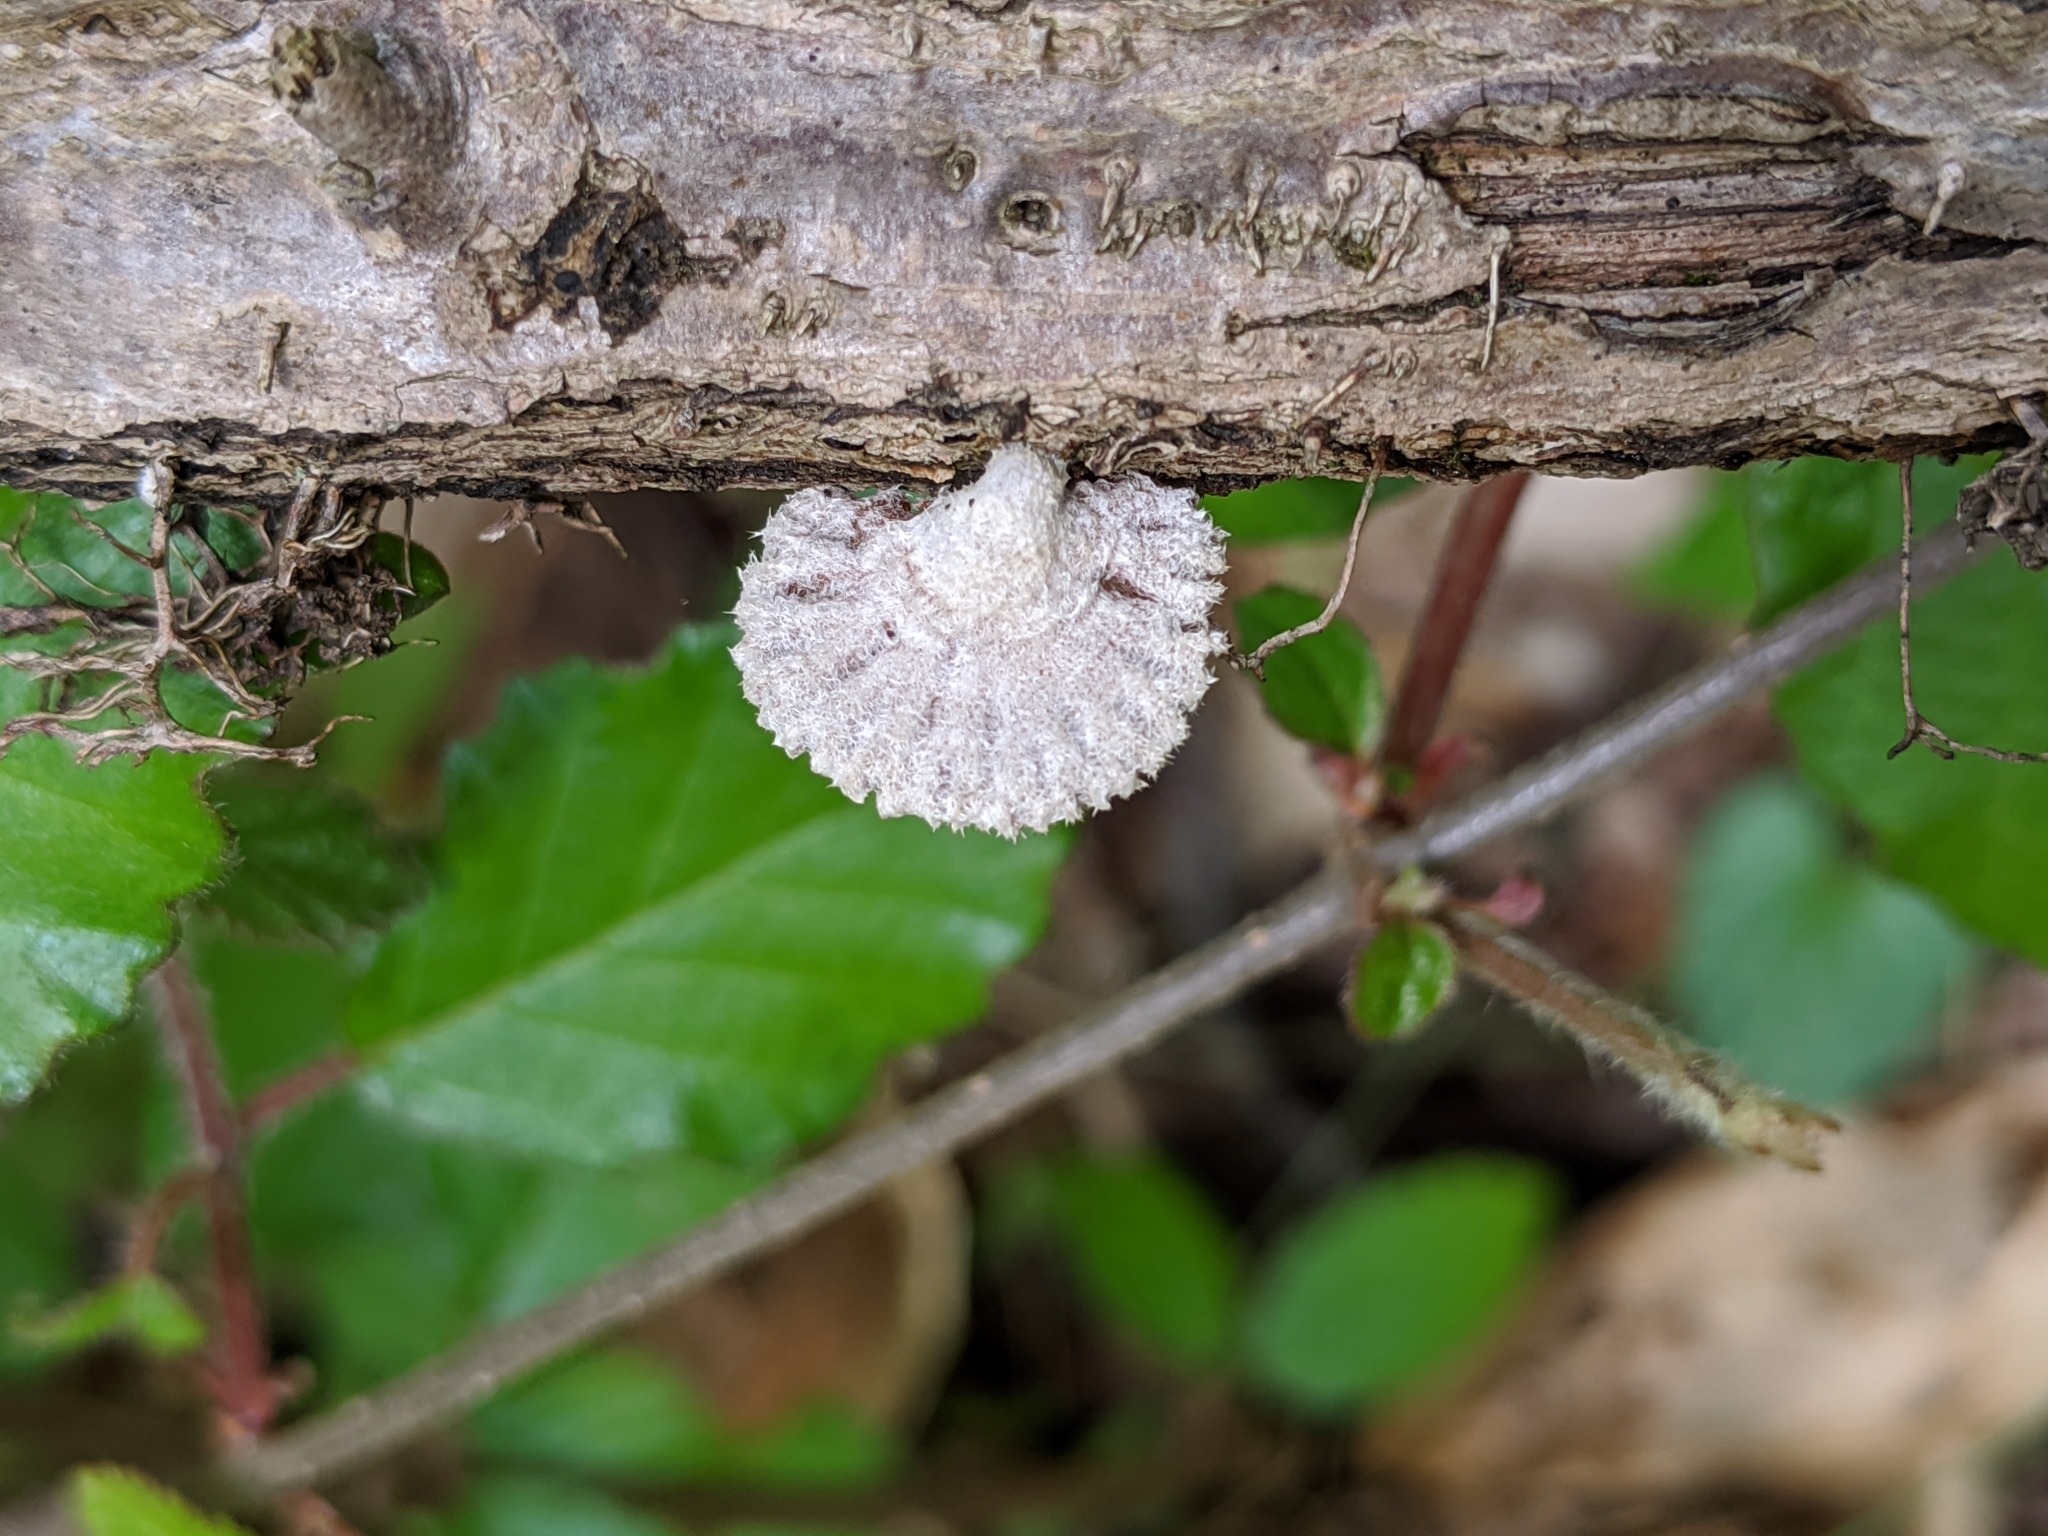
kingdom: Fungi
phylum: Basidiomycota
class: Agaricomycetes
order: Agaricales
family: Schizophyllaceae
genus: Schizophyllum
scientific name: Schizophyllum commune
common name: Common porecrust
